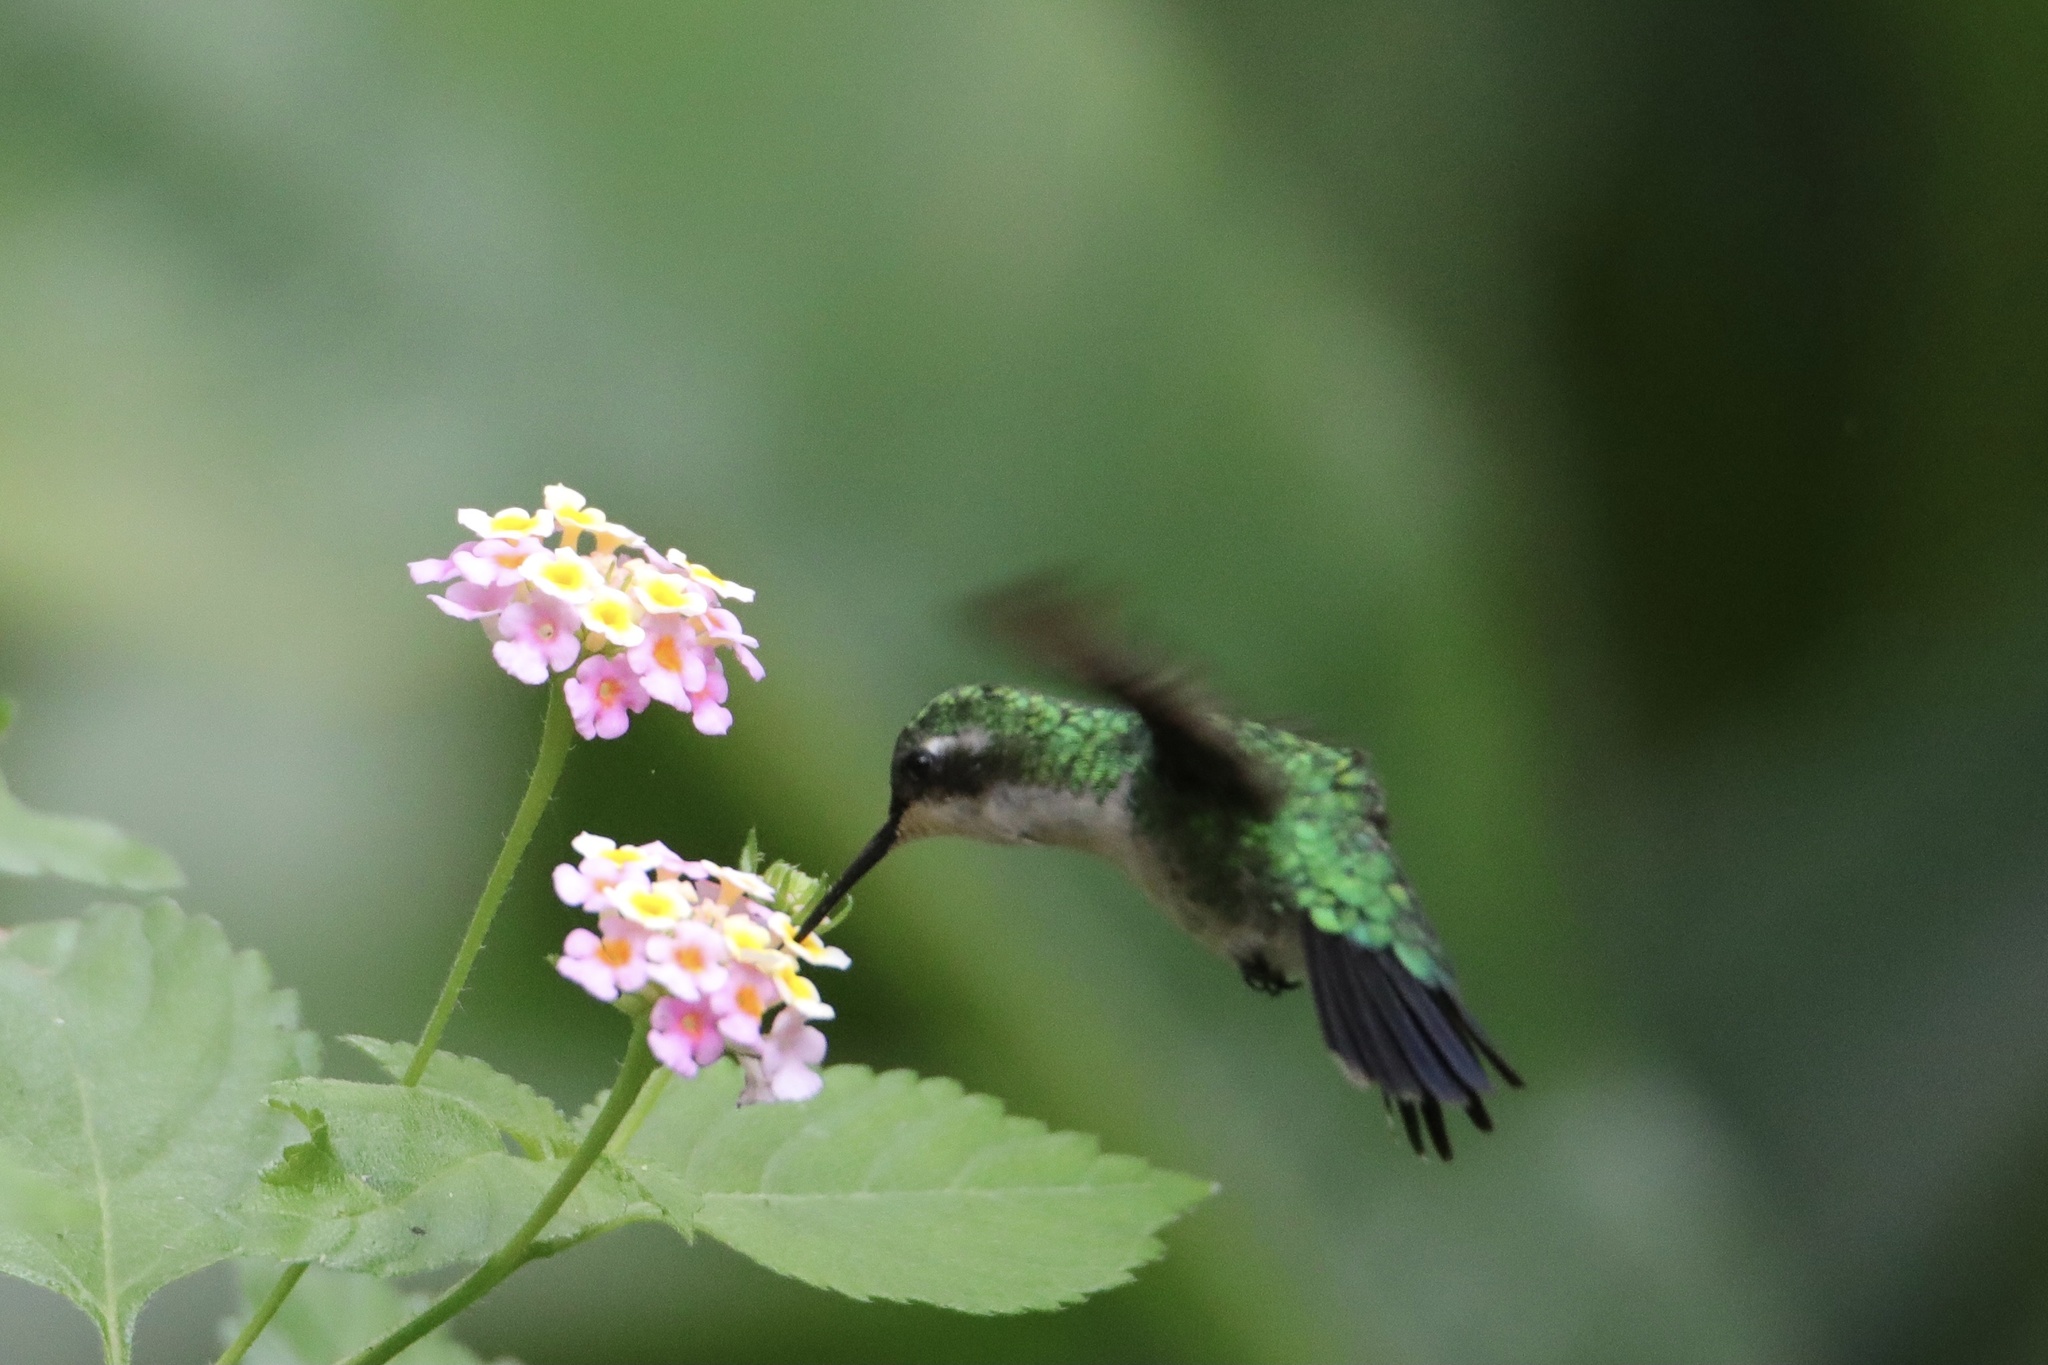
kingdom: Animalia
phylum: Chordata
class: Aves
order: Apodiformes
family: Trochilidae
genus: Chlorostilbon
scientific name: Chlorostilbon assimilis
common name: Garden emerald
